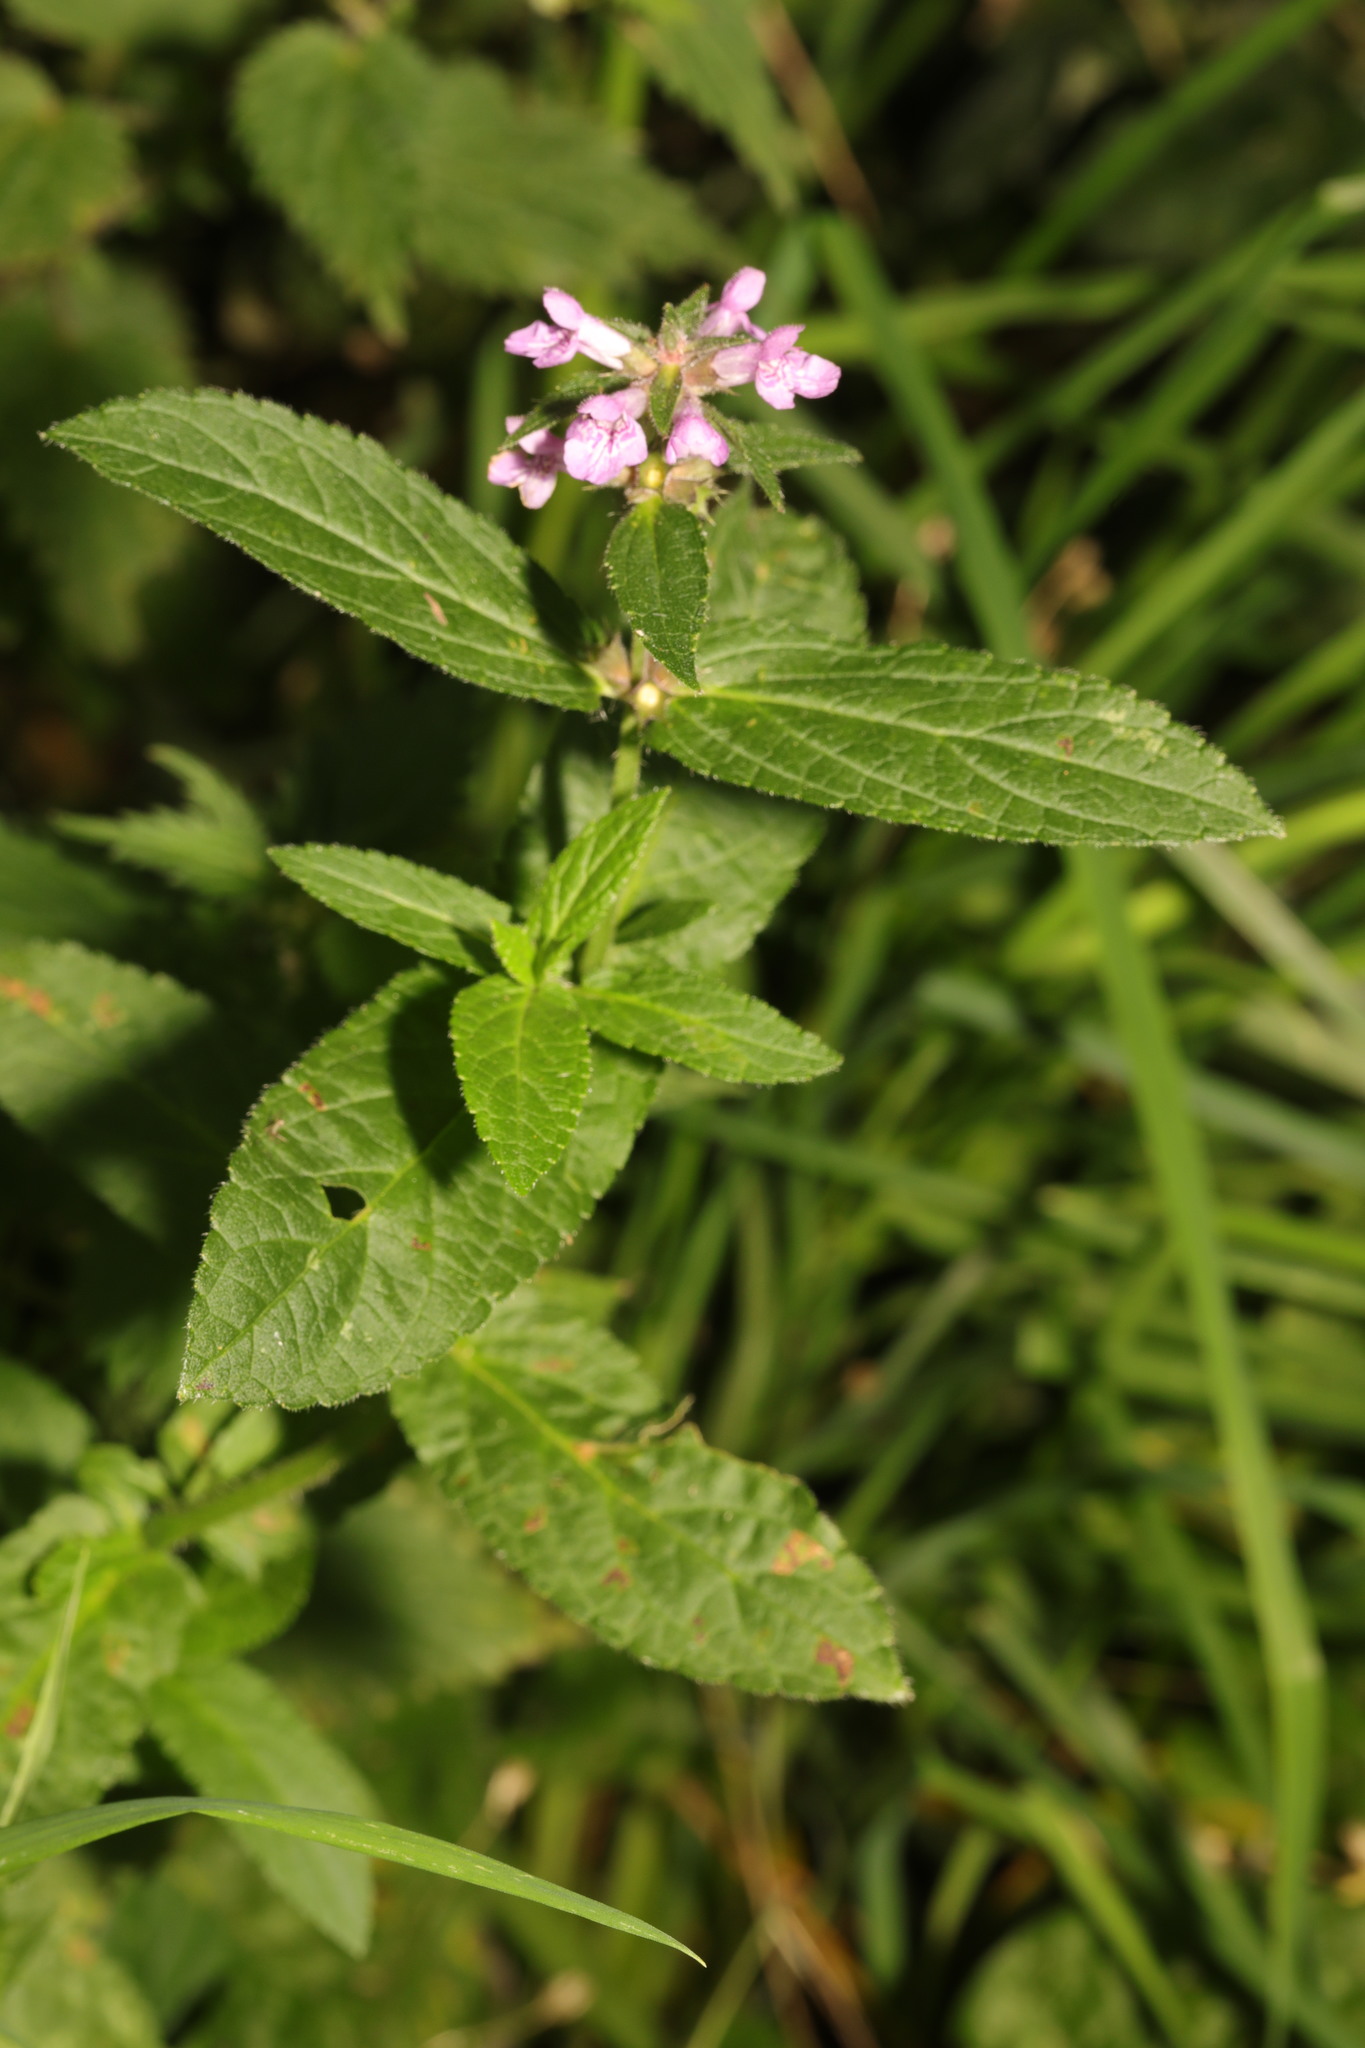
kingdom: Plantae
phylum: Tracheophyta
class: Magnoliopsida
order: Lamiales
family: Lamiaceae
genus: Stachys
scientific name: Stachys palustris
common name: Marsh woundwort
